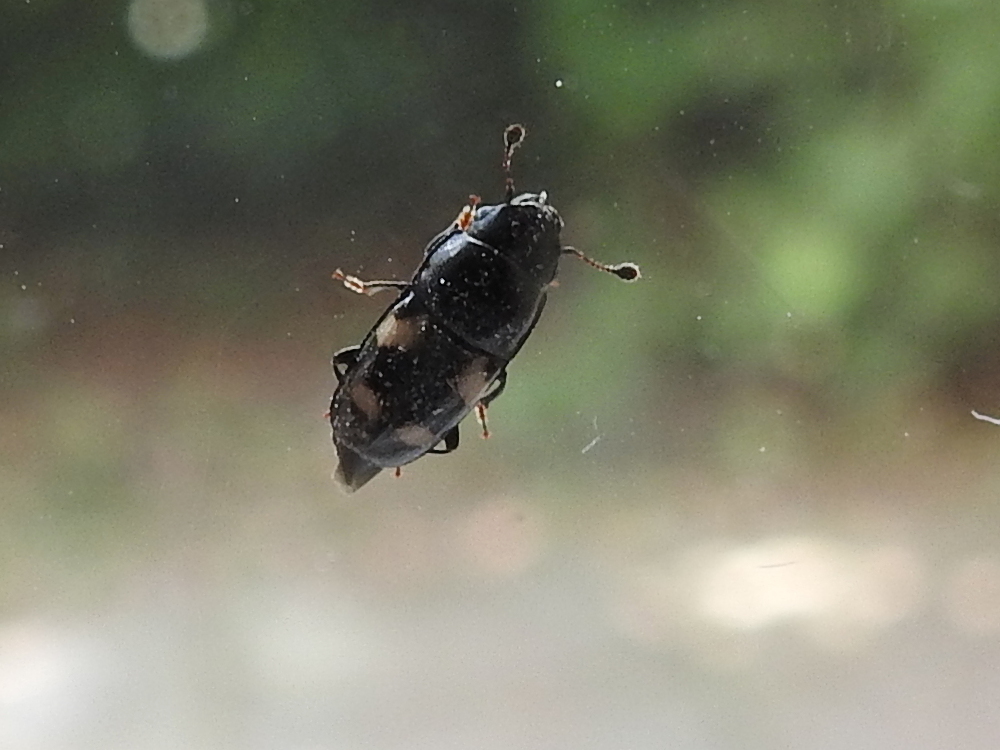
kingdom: Animalia
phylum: Arthropoda
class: Insecta
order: Coleoptera
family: Nitidulidae
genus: Glischrochilus
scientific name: Glischrochilus quadrisignatus
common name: Picnic beetle
